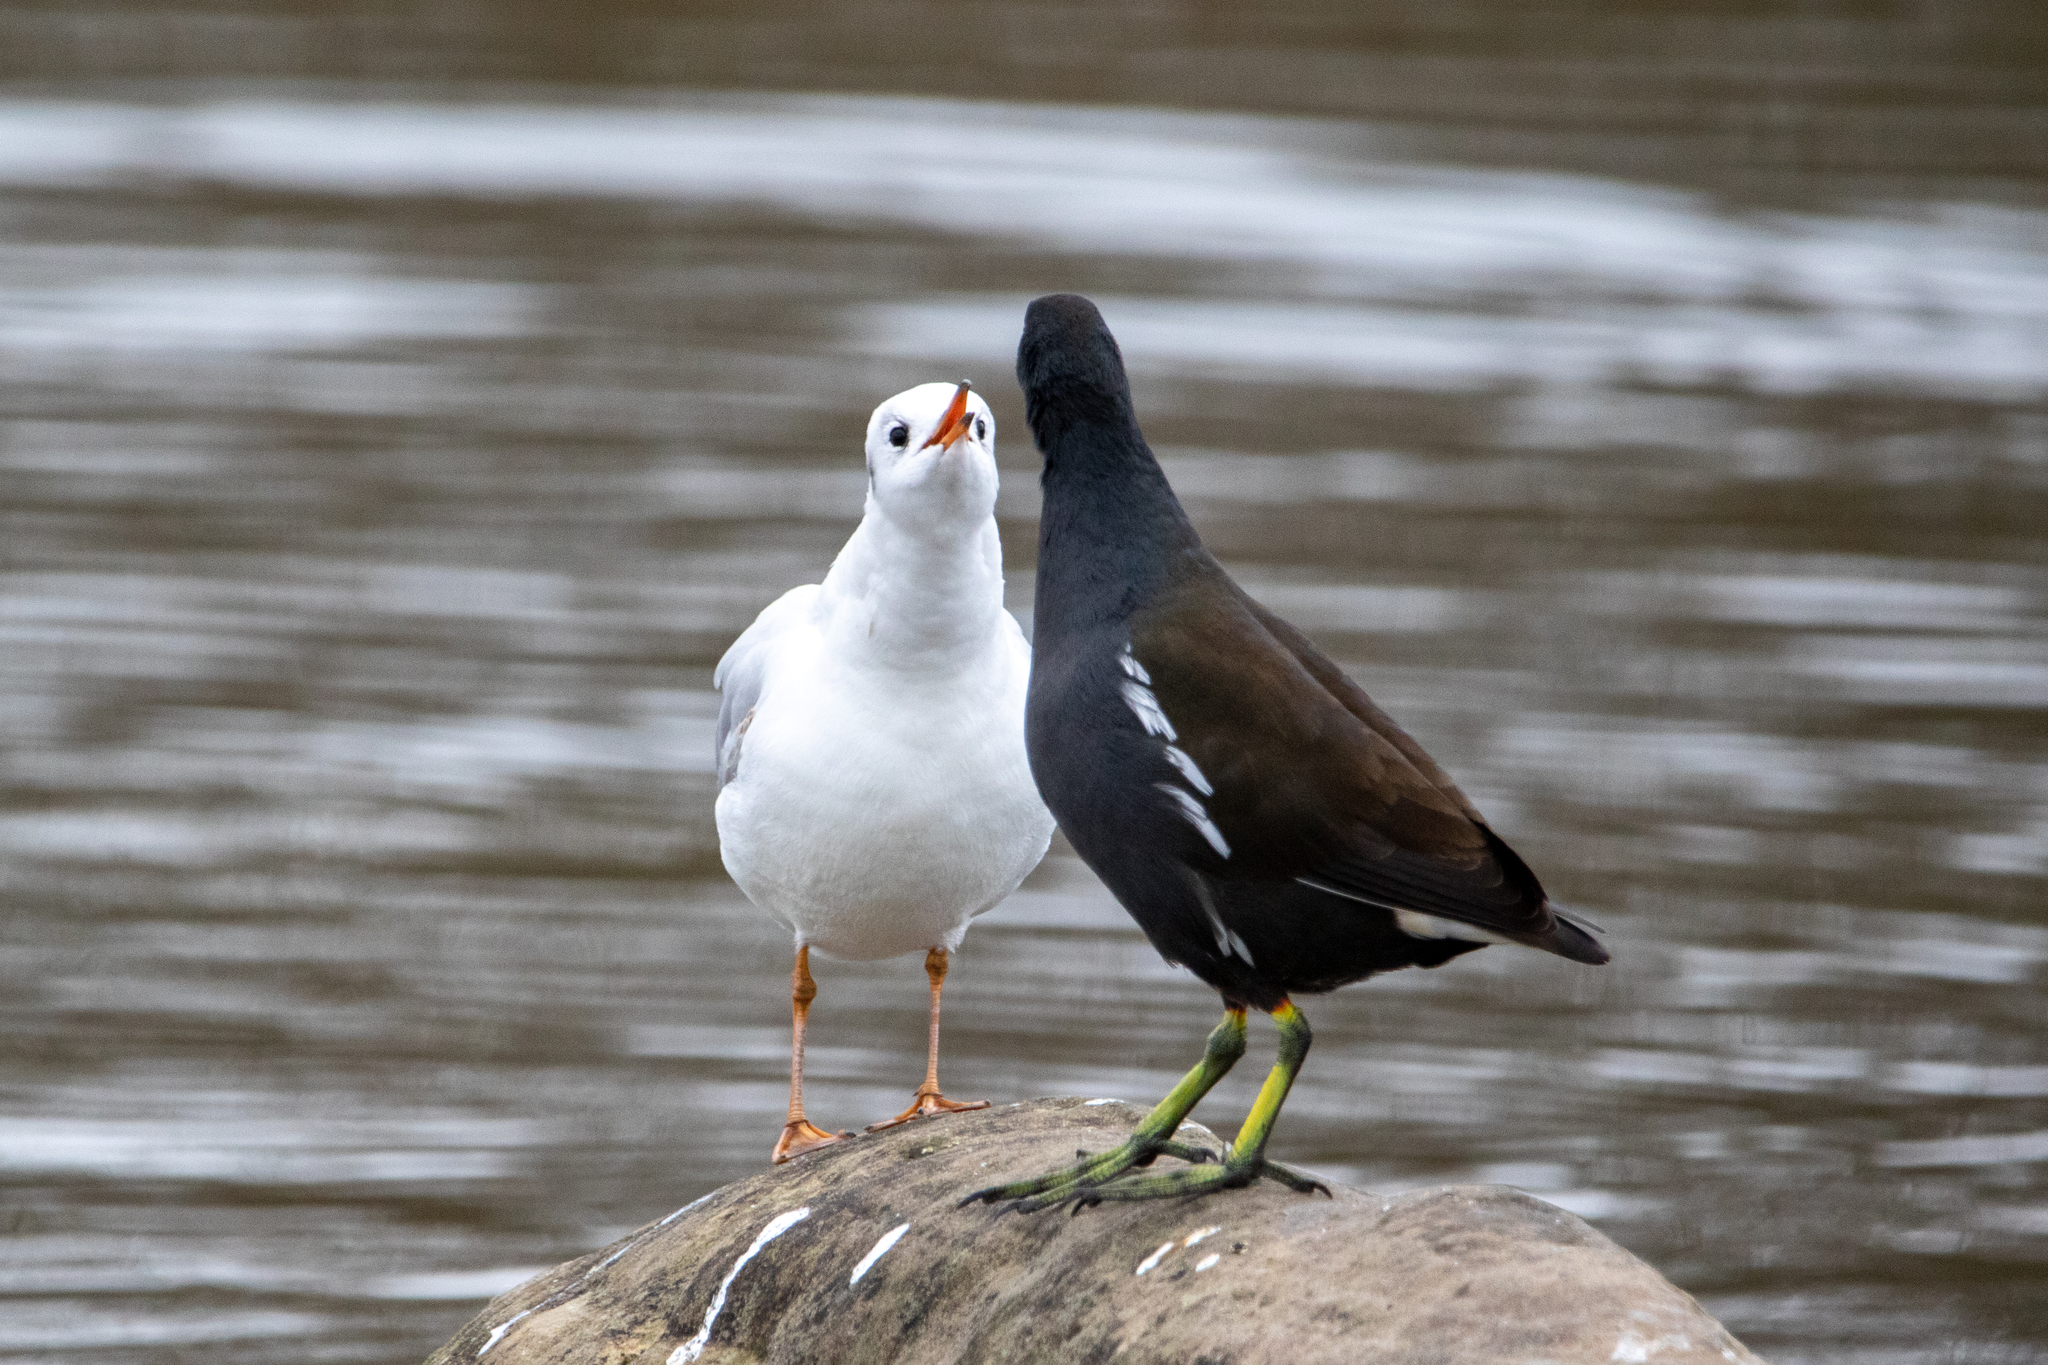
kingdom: Animalia
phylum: Chordata
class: Aves
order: Gruiformes
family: Rallidae
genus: Gallinula
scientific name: Gallinula chloropus
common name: Common moorhen
